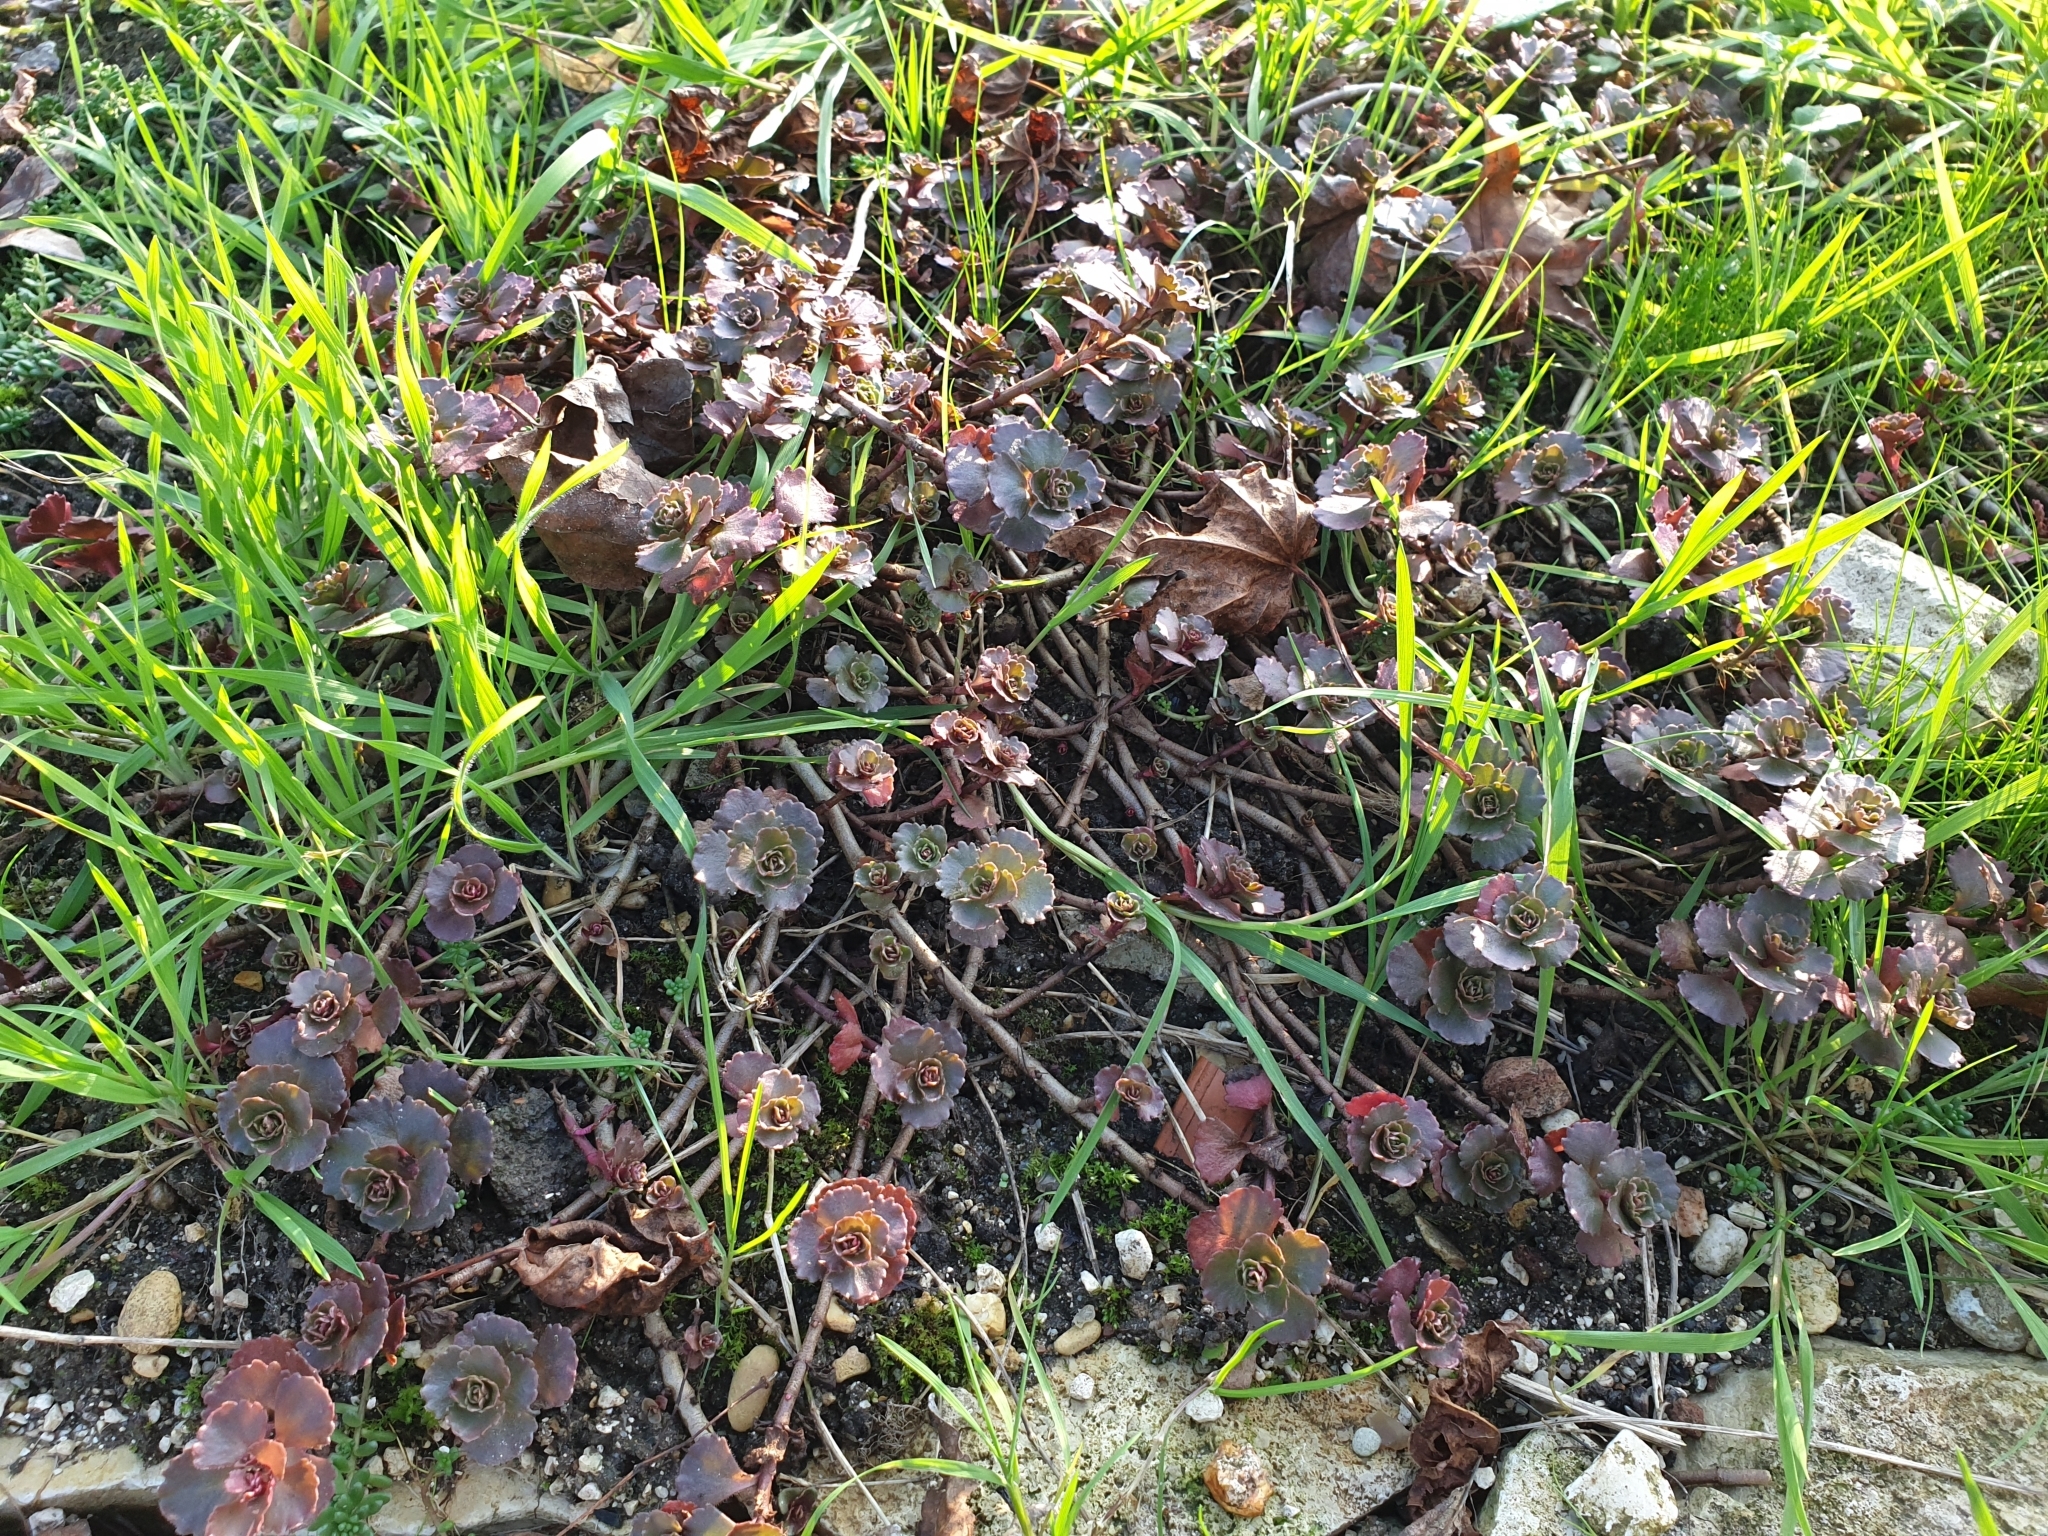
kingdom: Plantae
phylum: Tracheophyta
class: Magnoliopsida
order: Saxifragales
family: Crassulaceae
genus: Phedimus
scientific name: Phedimus spurius
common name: Caucasian stonecrop
